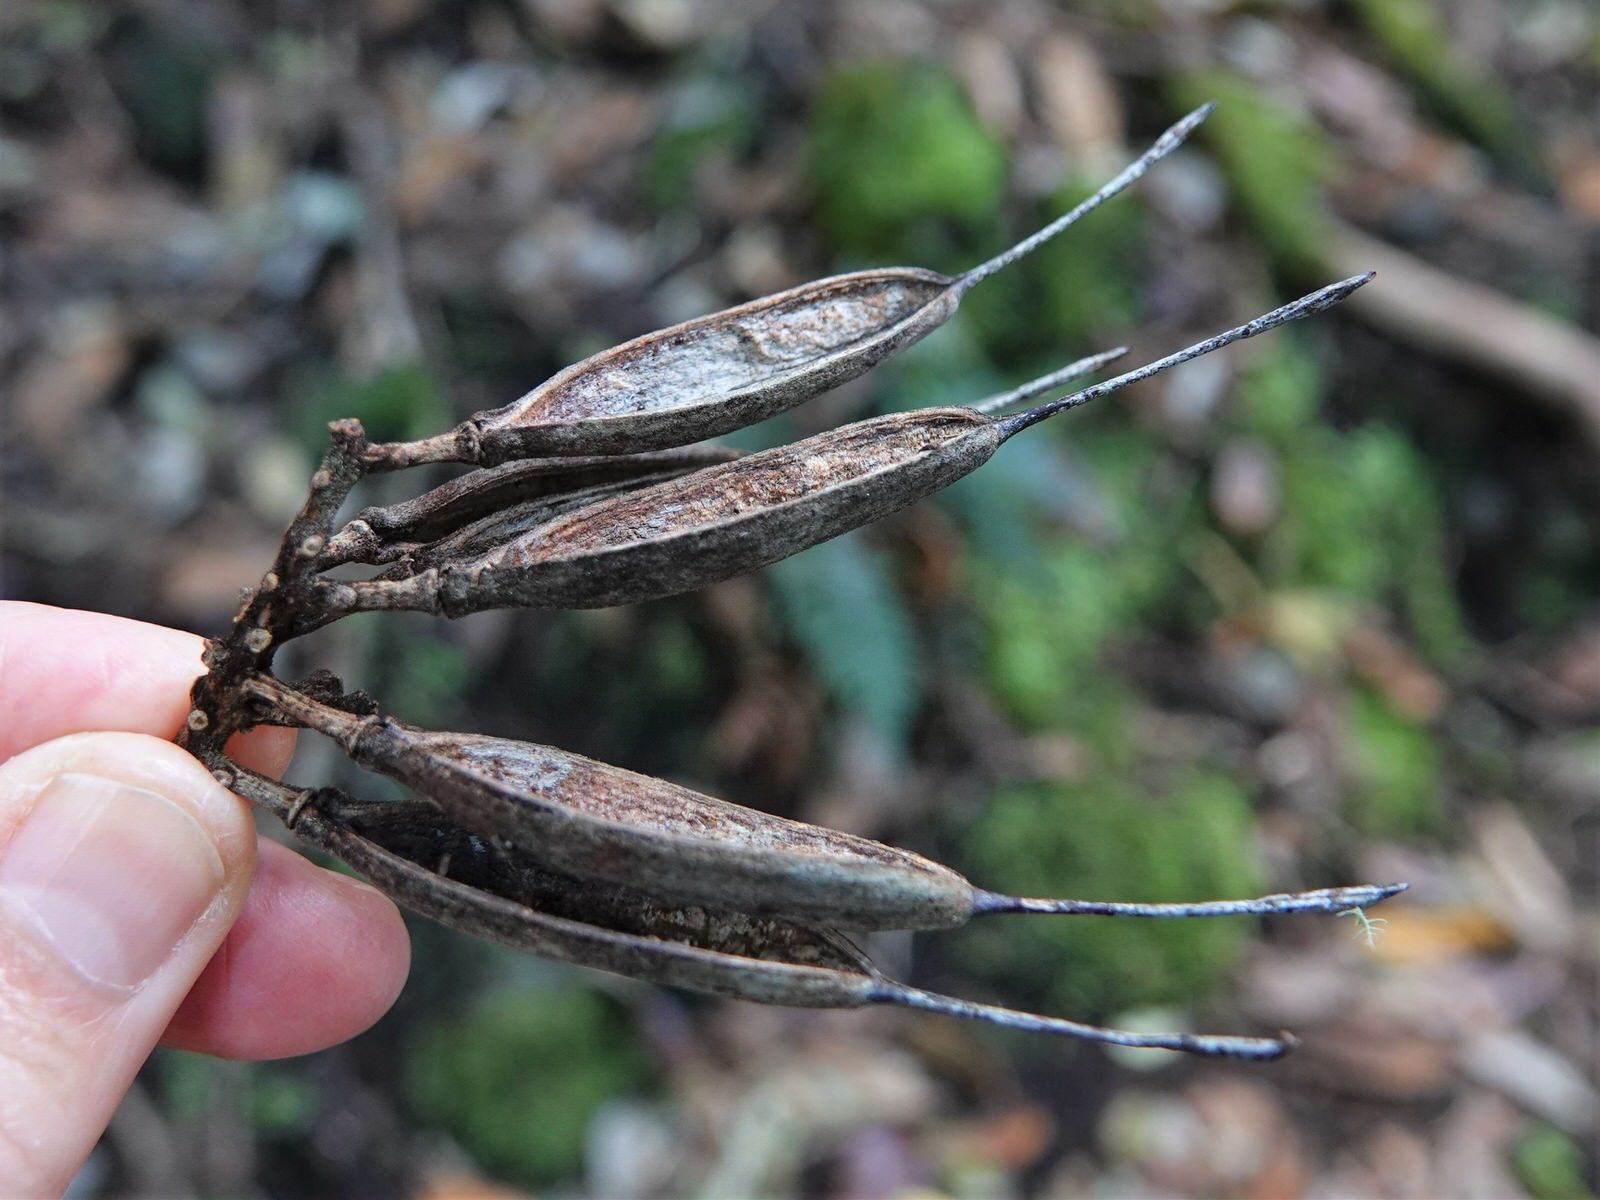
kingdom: Plantae
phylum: Tracheophyta
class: Magnoliopsida
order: Proteales
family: Proteaceae
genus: Knightia
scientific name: Knightia excelsa
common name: New zealand-honeysuckle
